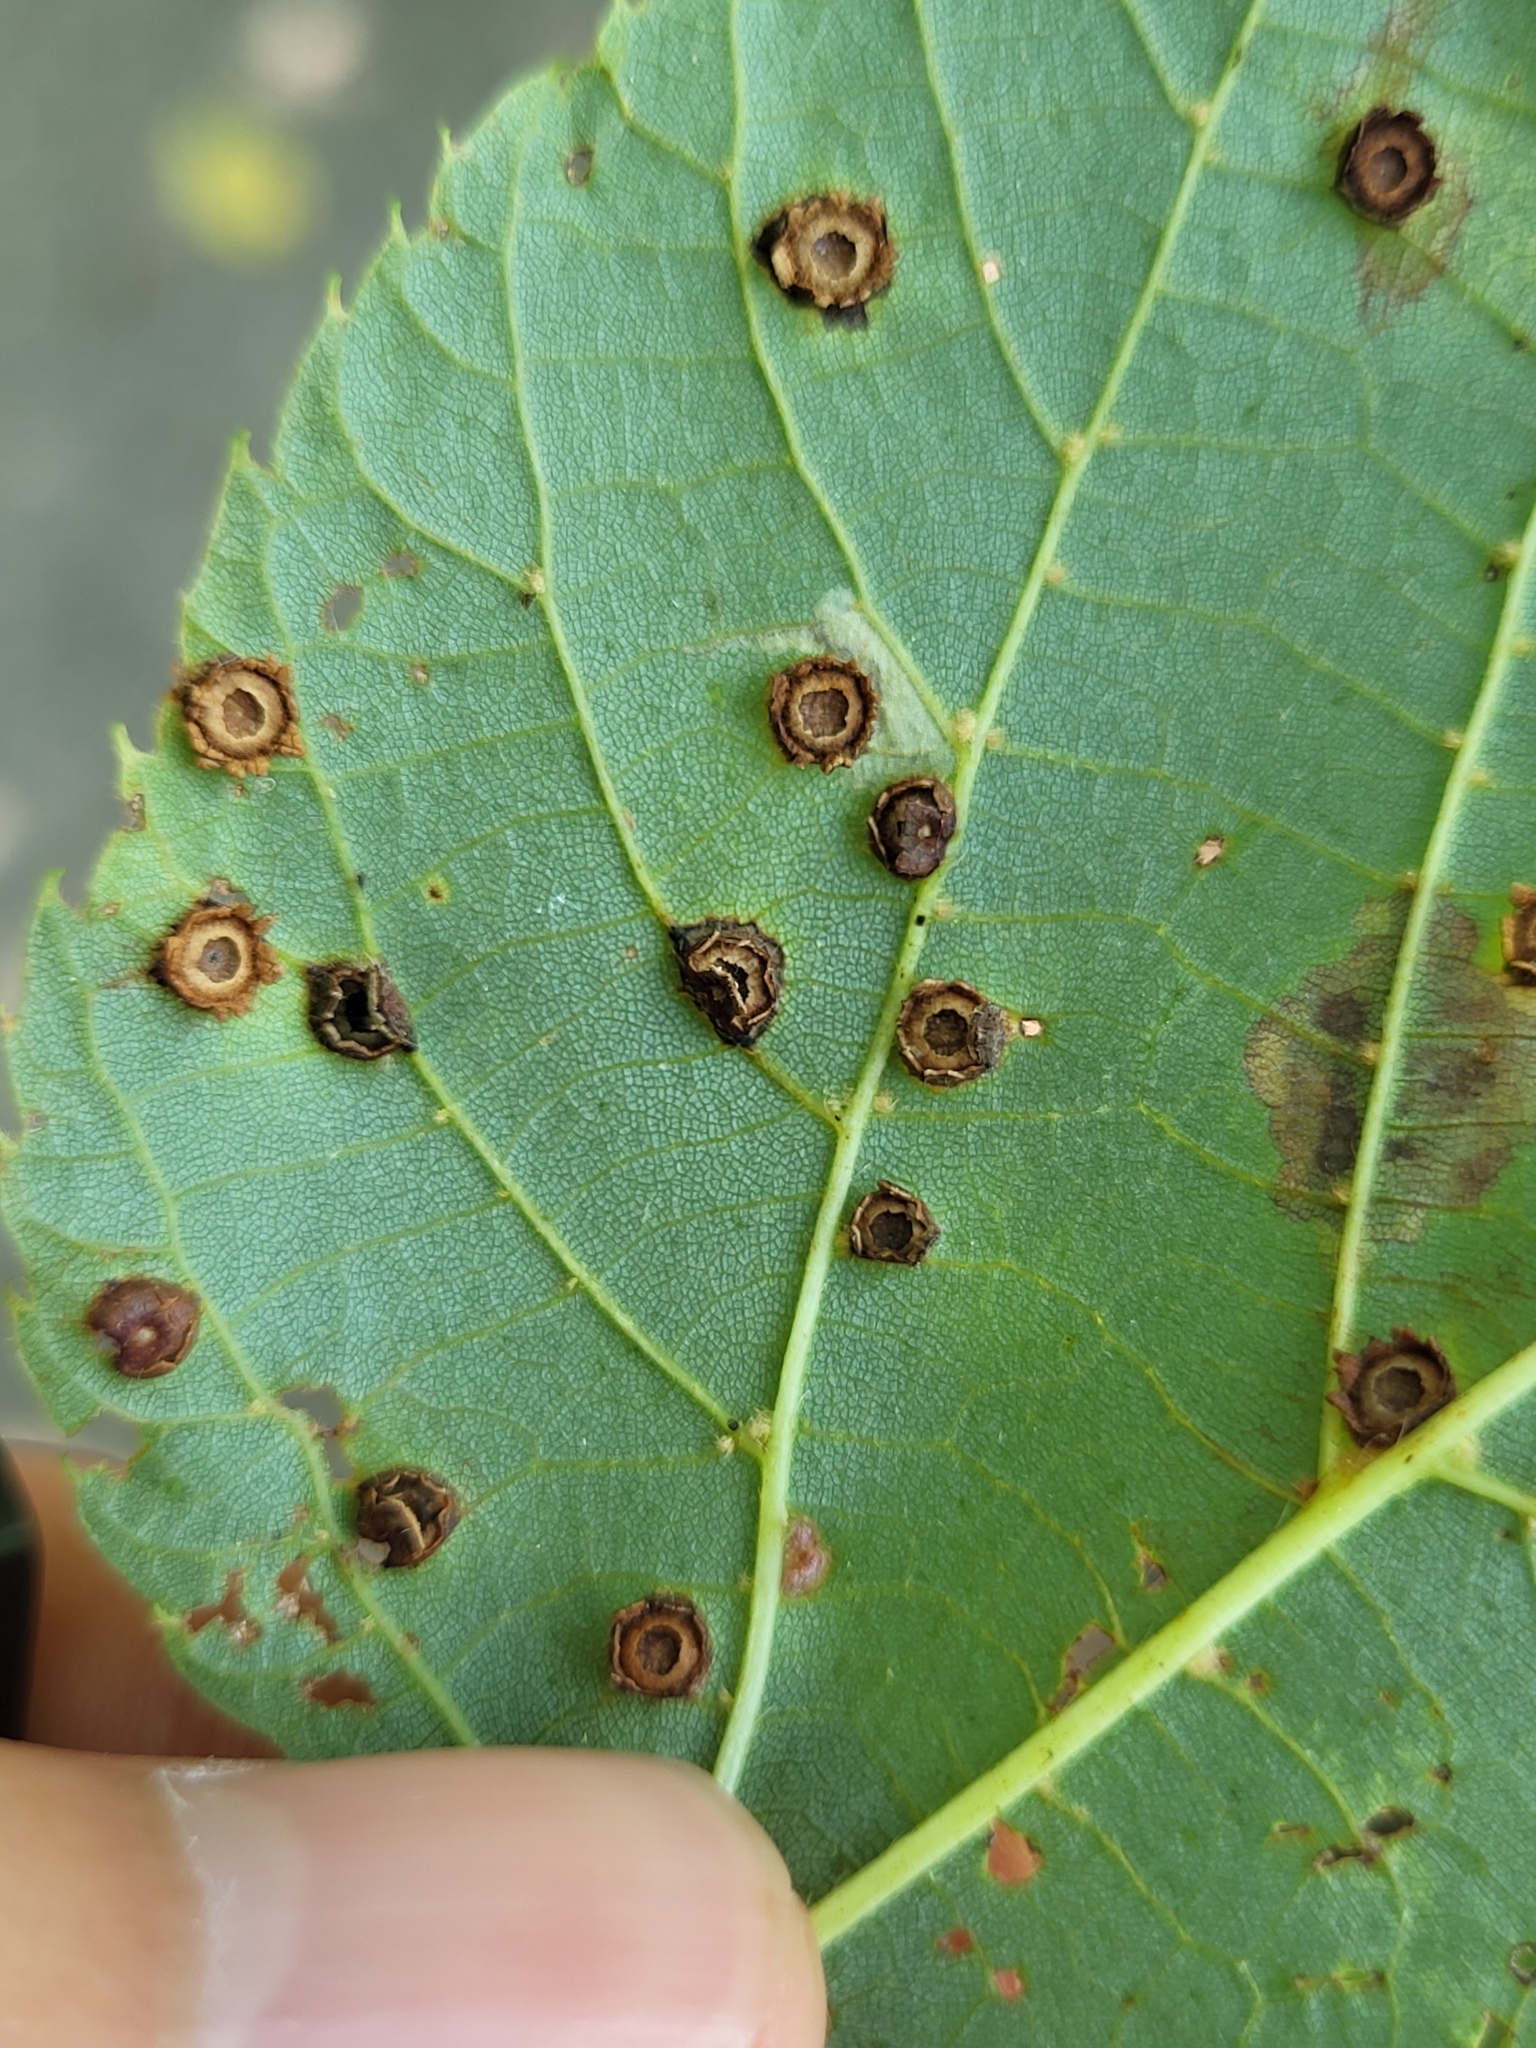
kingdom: Animalia
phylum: Arthropoda
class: Insecta
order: Diptera
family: Cecidomyiidae
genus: Contarinia
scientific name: Contarinia verrucicola
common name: Linden wart gall midge
